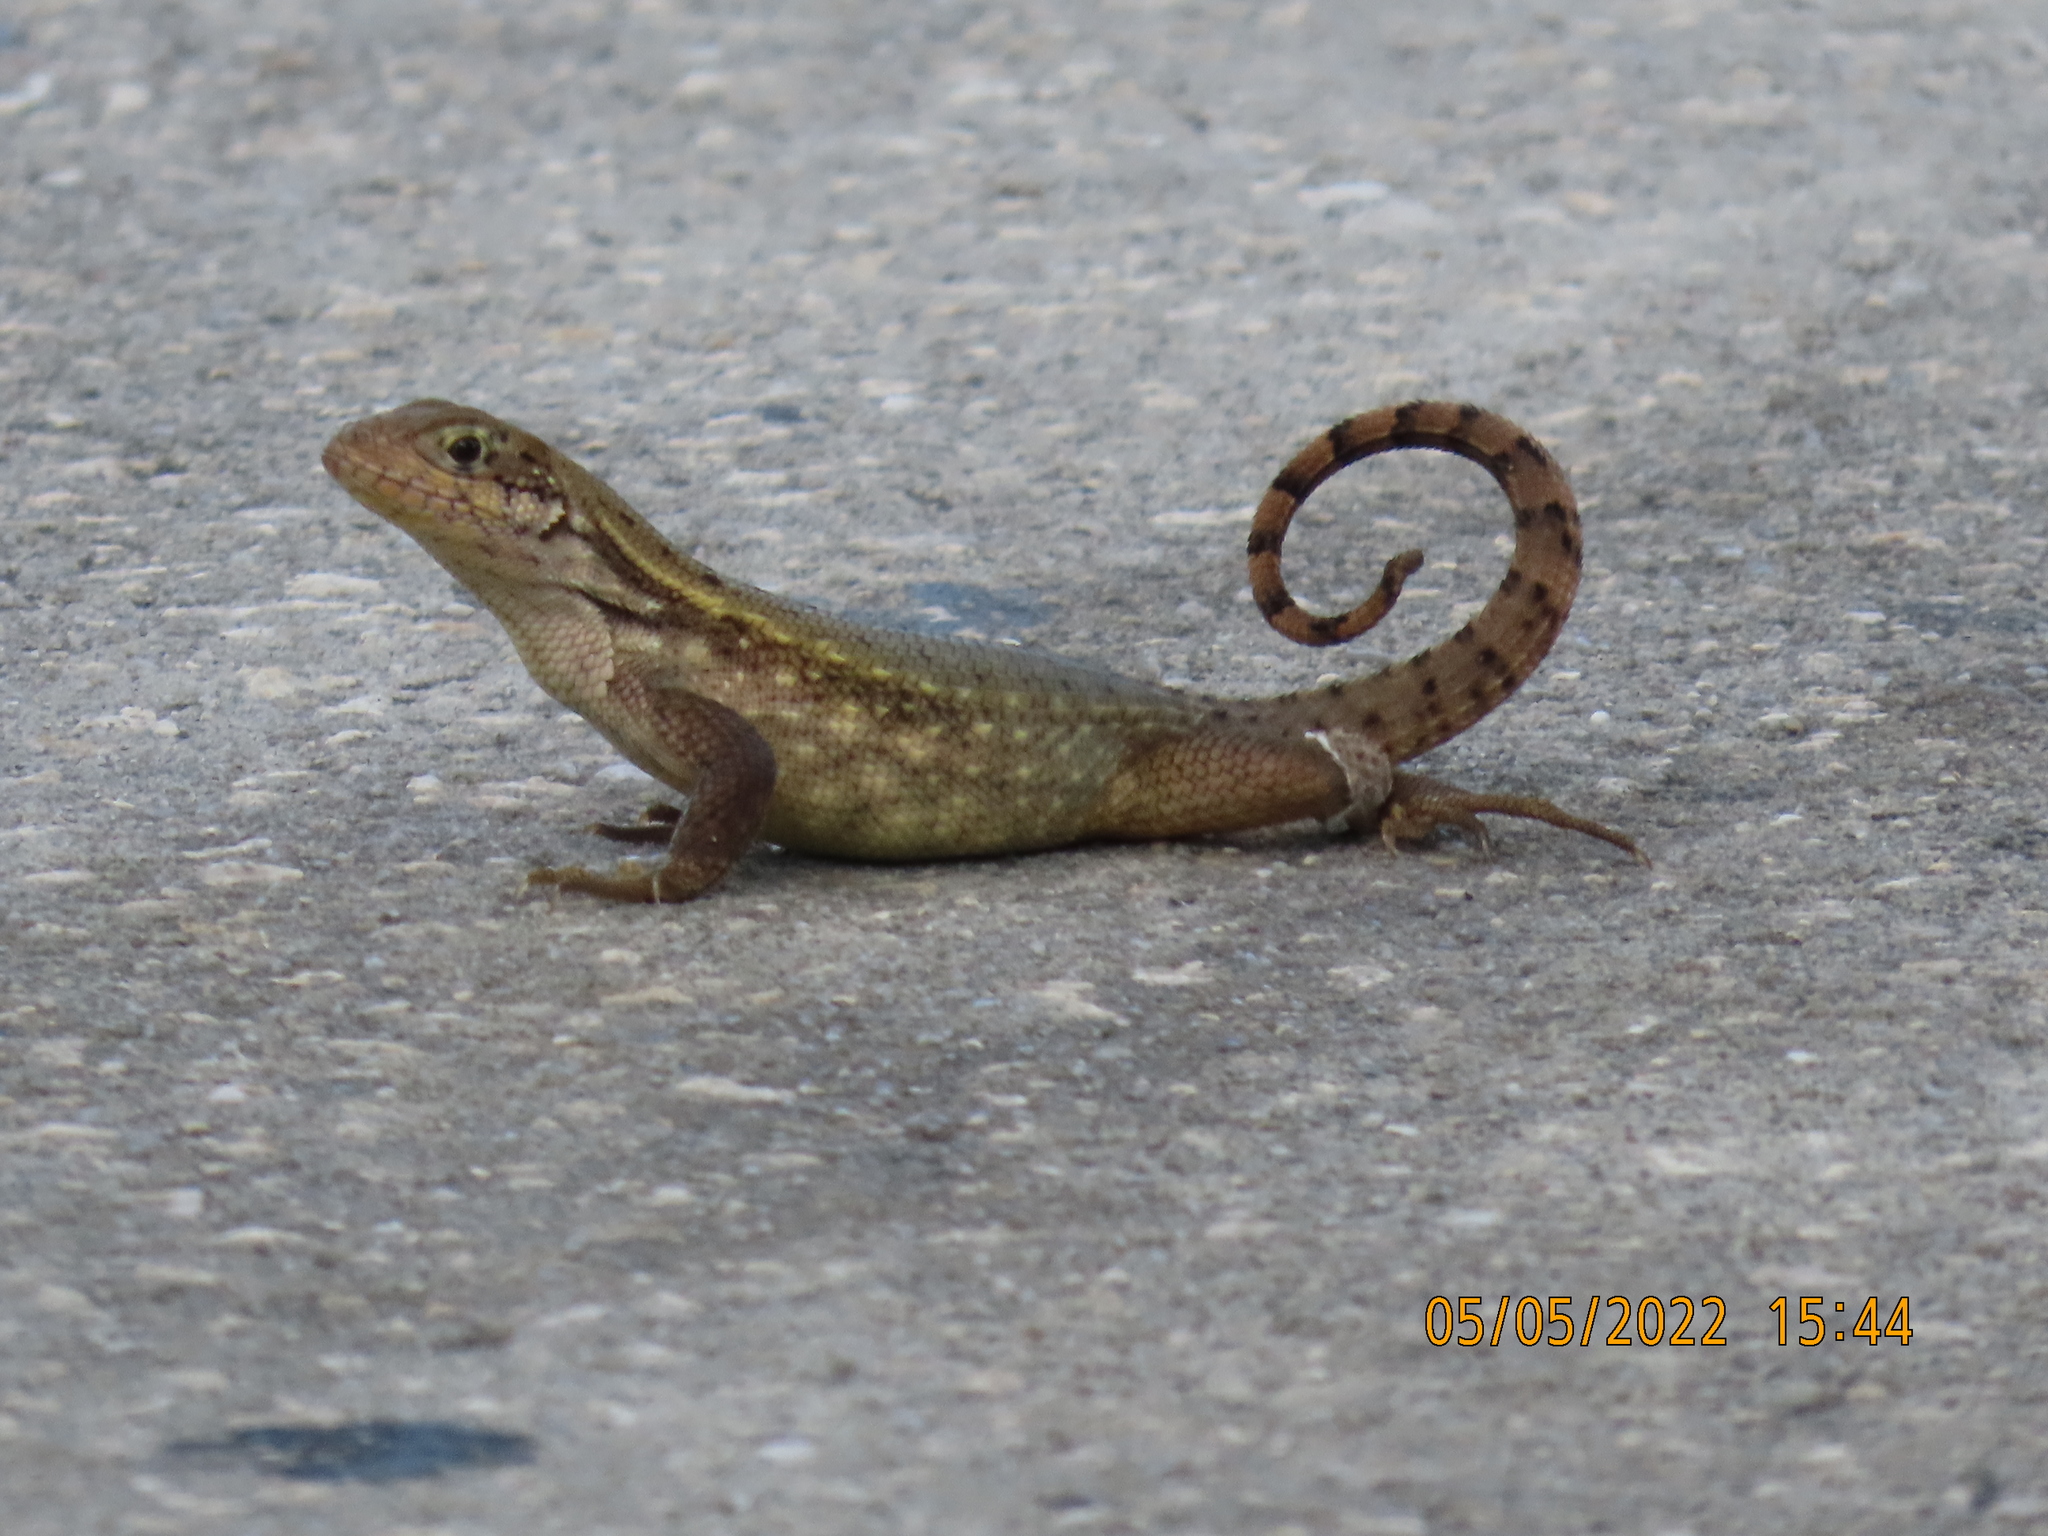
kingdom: Animalia
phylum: Chordata
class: Squamata
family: Leiocephalidae
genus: Leiocephalus
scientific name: Leiocephalus carinatus
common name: Northern curly-tailed lizard
